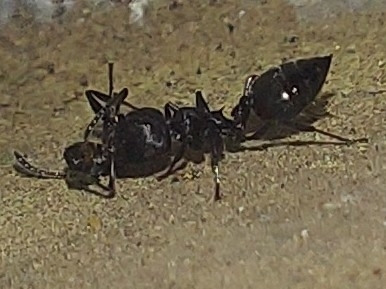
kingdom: Animalia
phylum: Arthropoda
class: Insecta
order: Hymenoptera
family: Formicidae
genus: Crematogaster
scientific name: Crematogaster peringueyi
